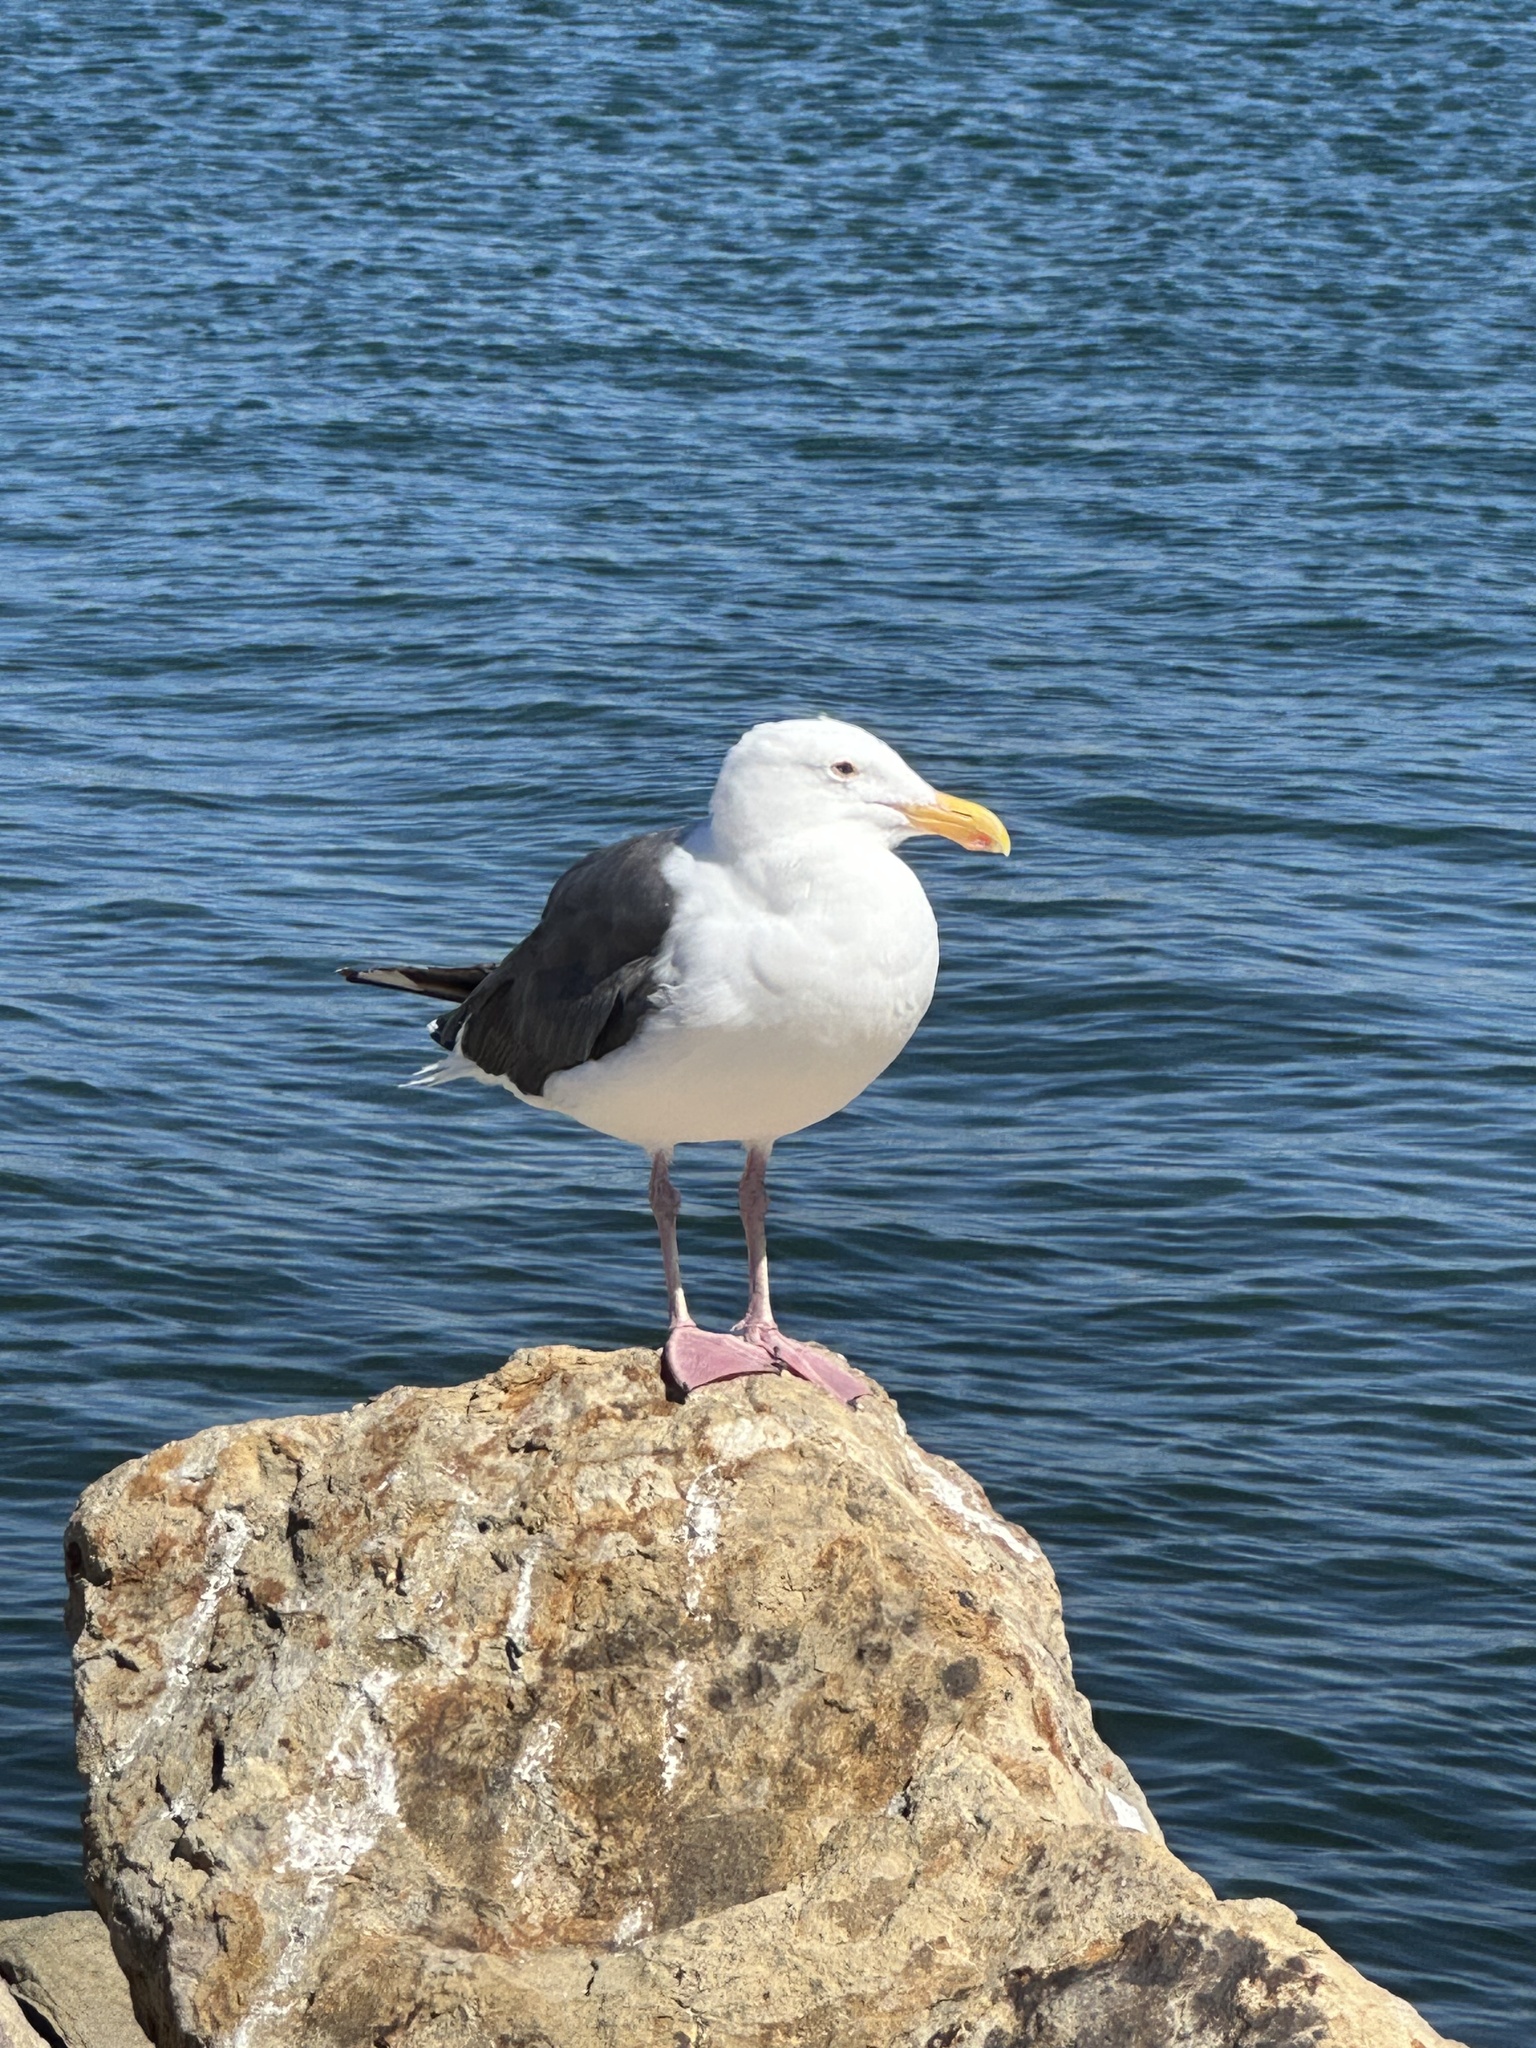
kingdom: Animalia
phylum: Chordata
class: Aves
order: Charadriiformes
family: Laridae
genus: Larus
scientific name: Larus occidentalis
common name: Western gull
